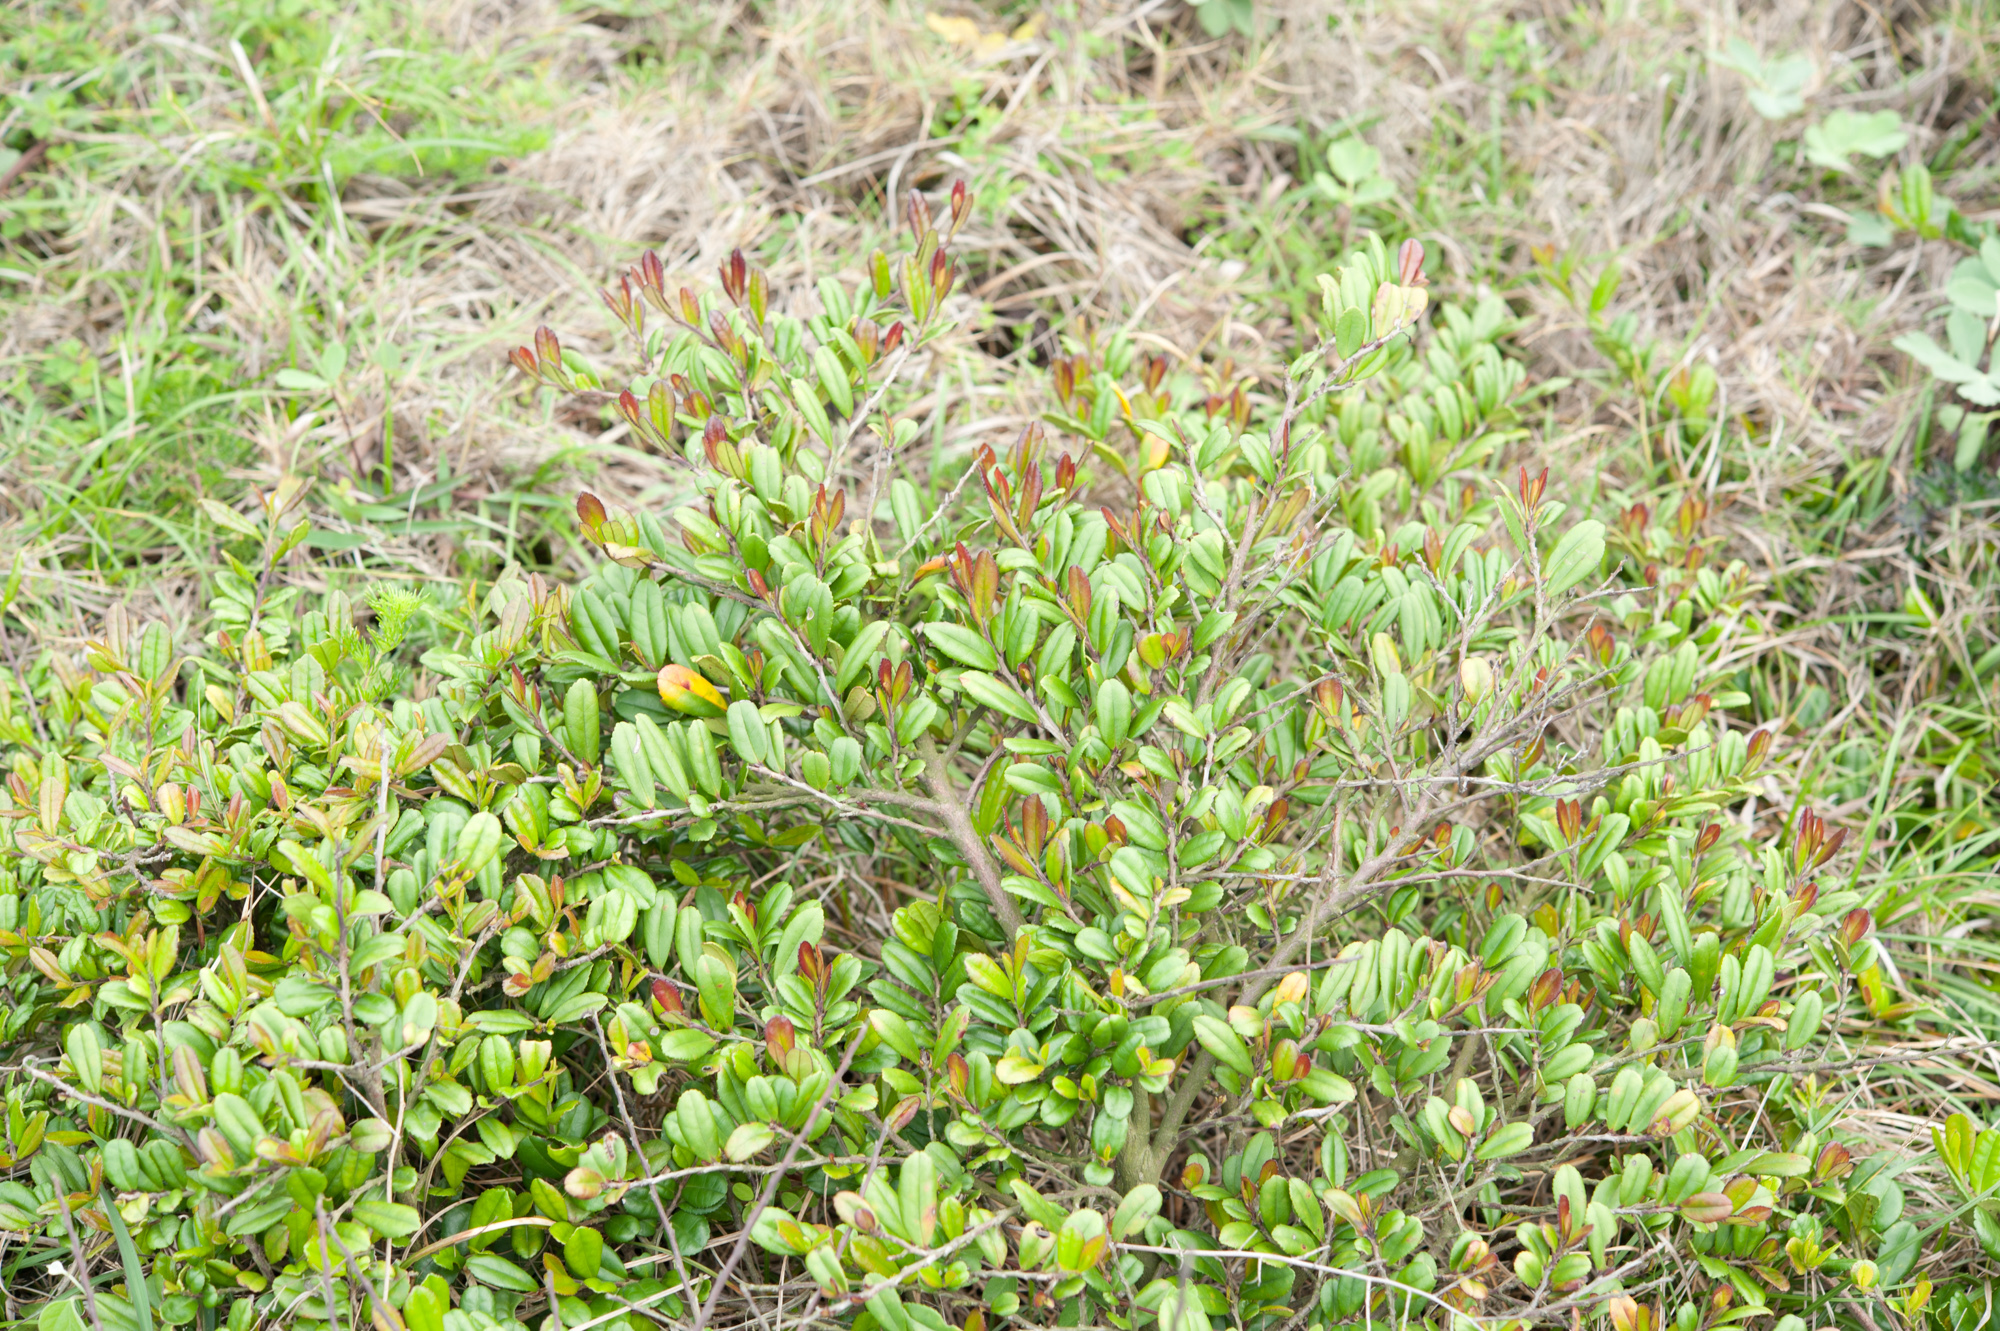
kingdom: Plantae
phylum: Tracheophyta
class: Magnoliopsida
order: Ericales
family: Pentaphylacaceae
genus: Eurya
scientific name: Eurya emarginata
